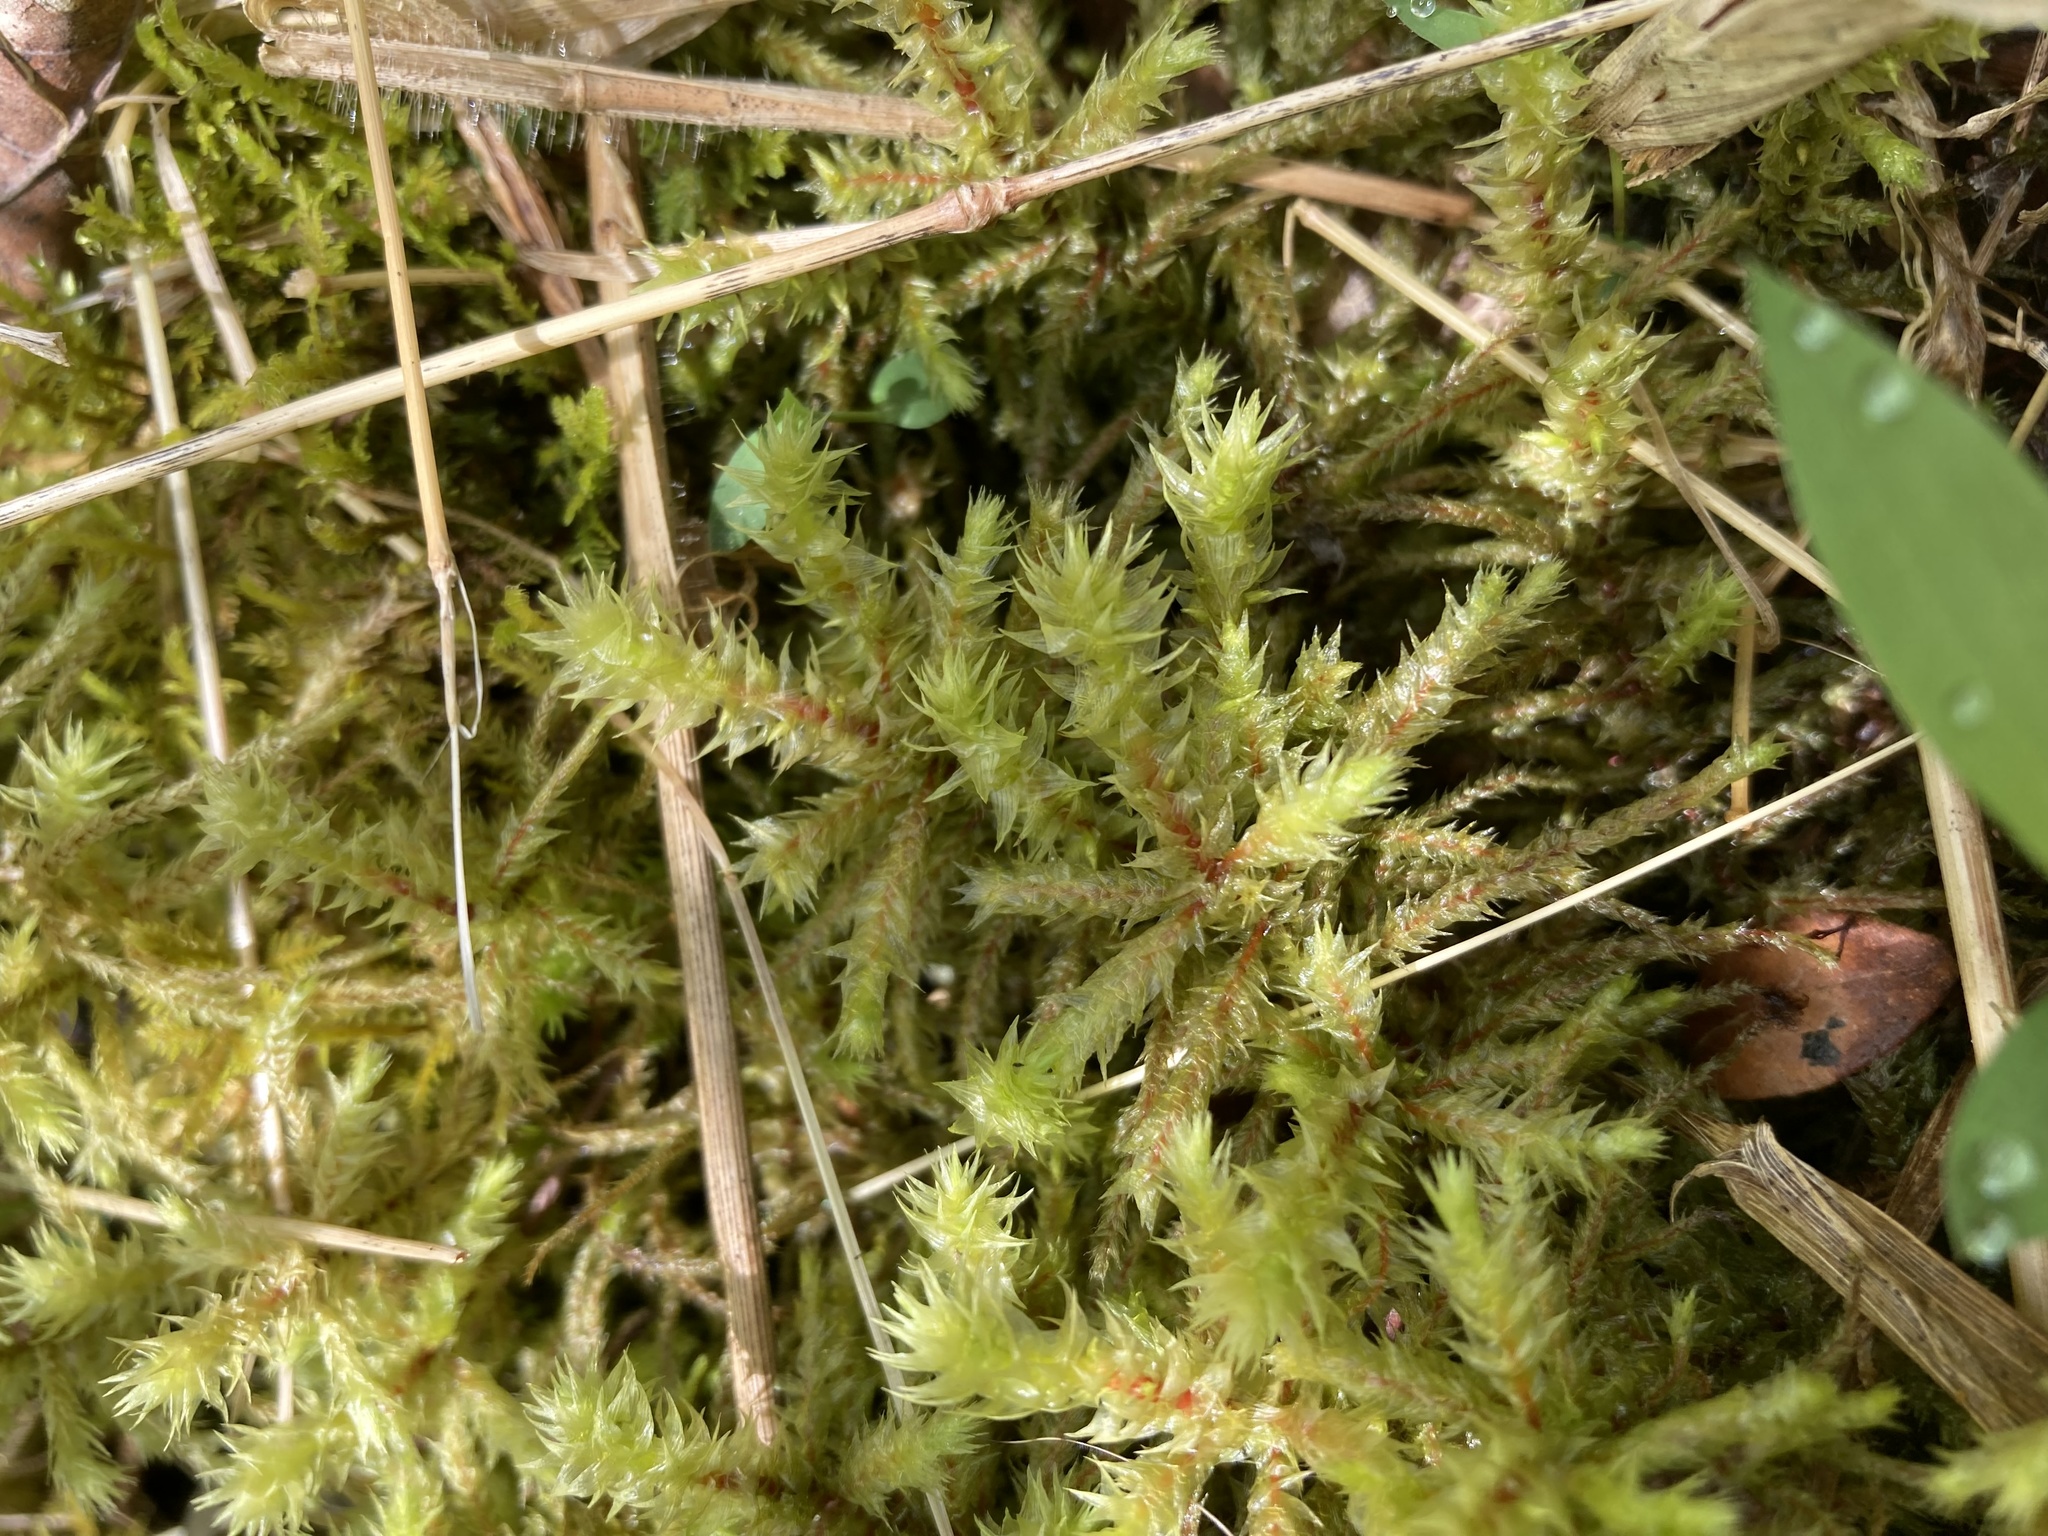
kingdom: Plantae
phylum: Bryophyta
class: Bryopsida
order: Hypnales
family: Hylocomiaceae
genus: Hylocomiadelphus
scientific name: Hylocomiadelphus triquetrus
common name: Rough goose neck moss
